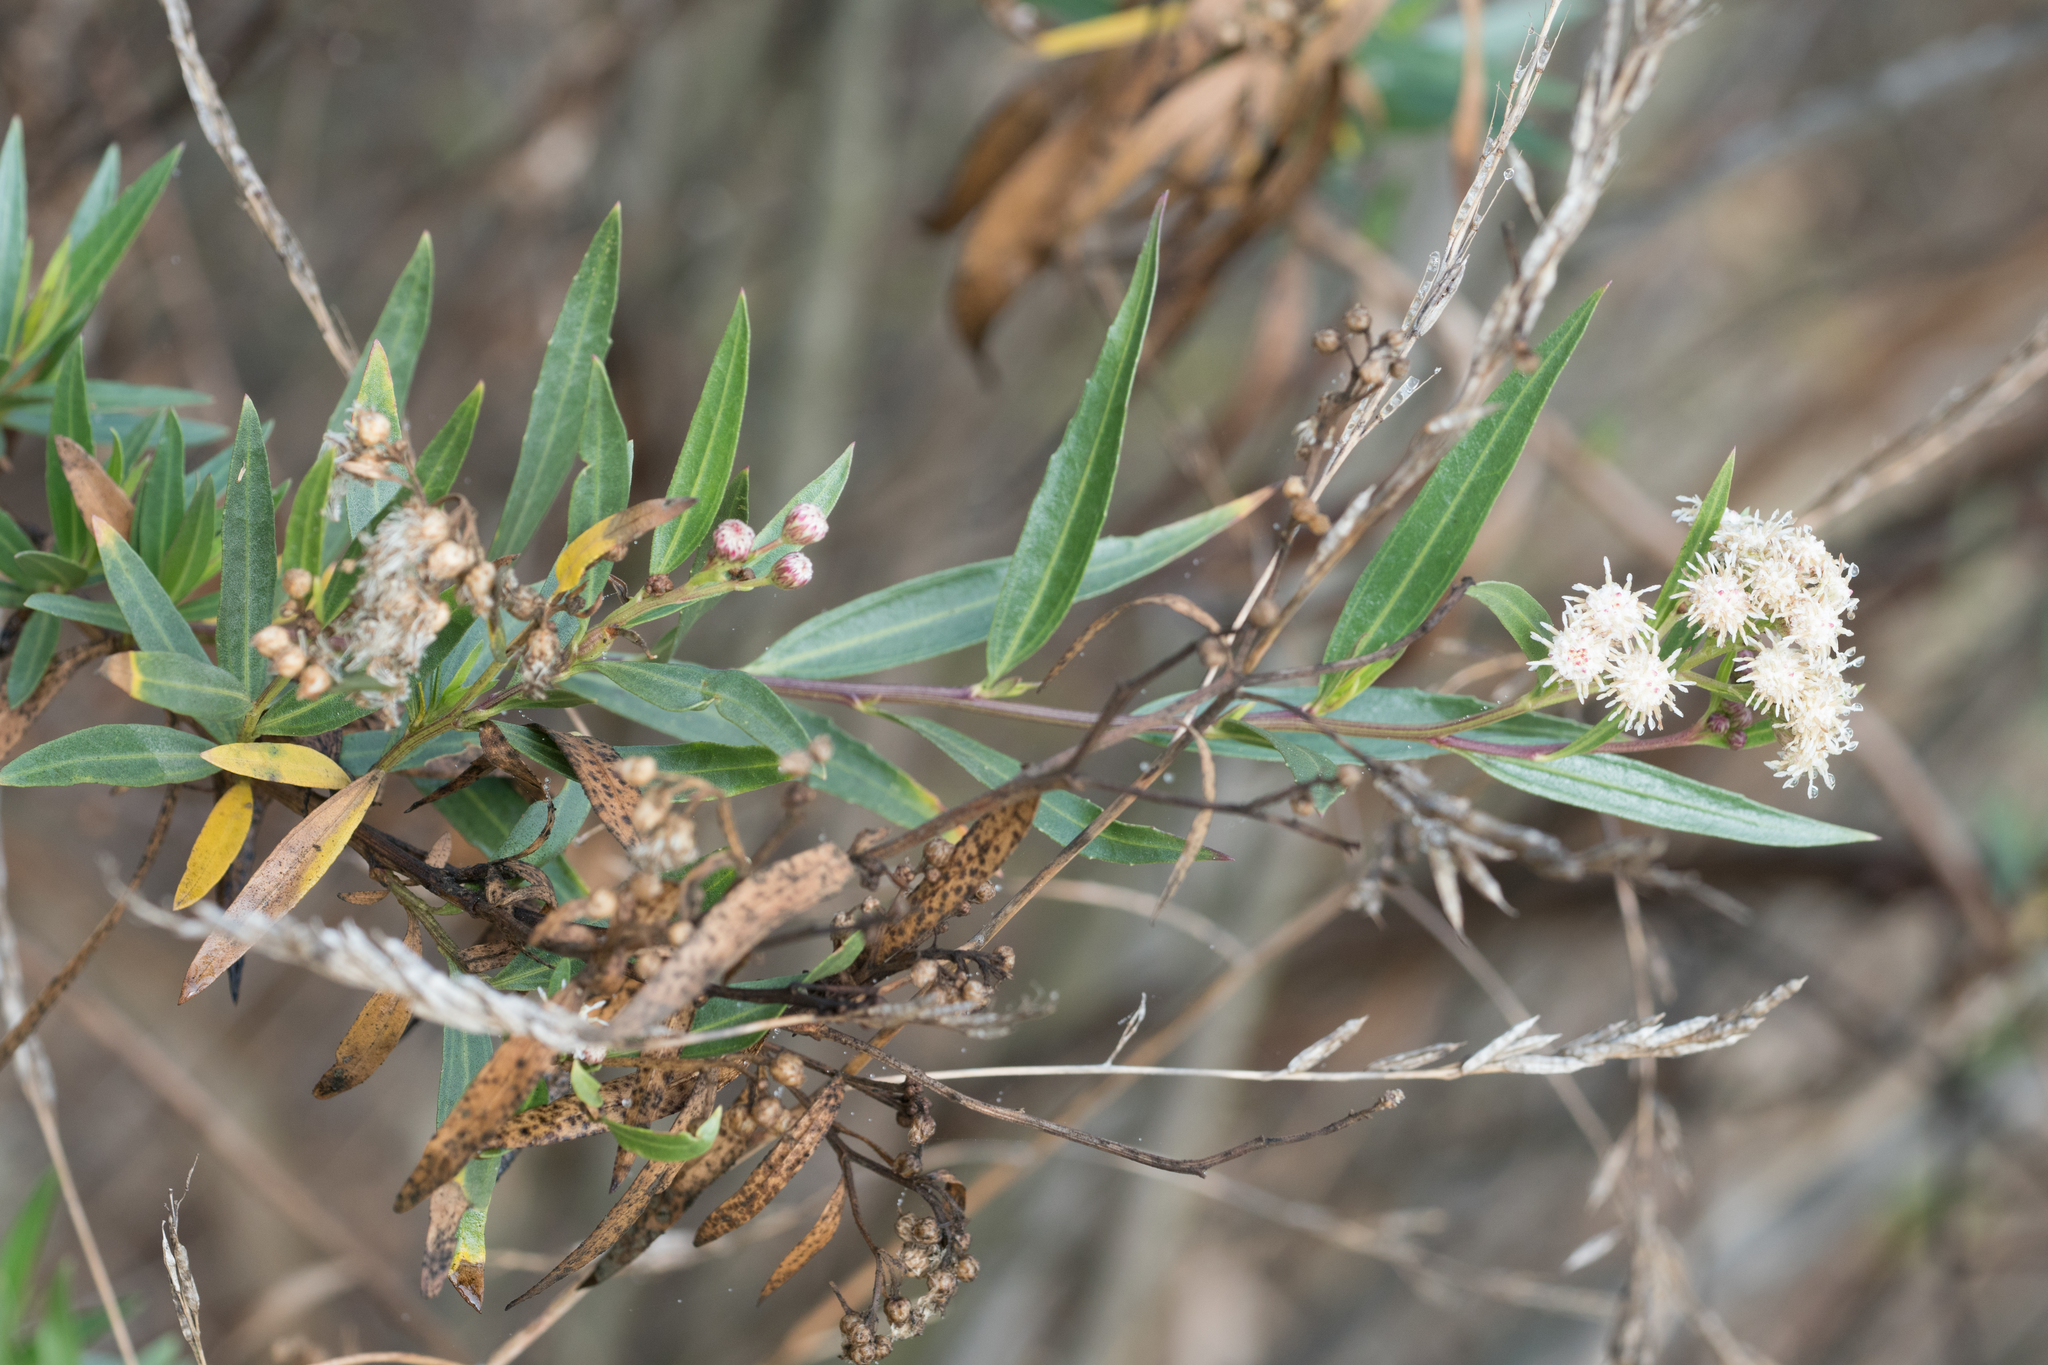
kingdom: Plantae
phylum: Tracheophyta
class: Magnoliopsida
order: Asterales
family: Asteraceae
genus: Baccharis
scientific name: Baccharis salicifolia
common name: Sticky baccharis
